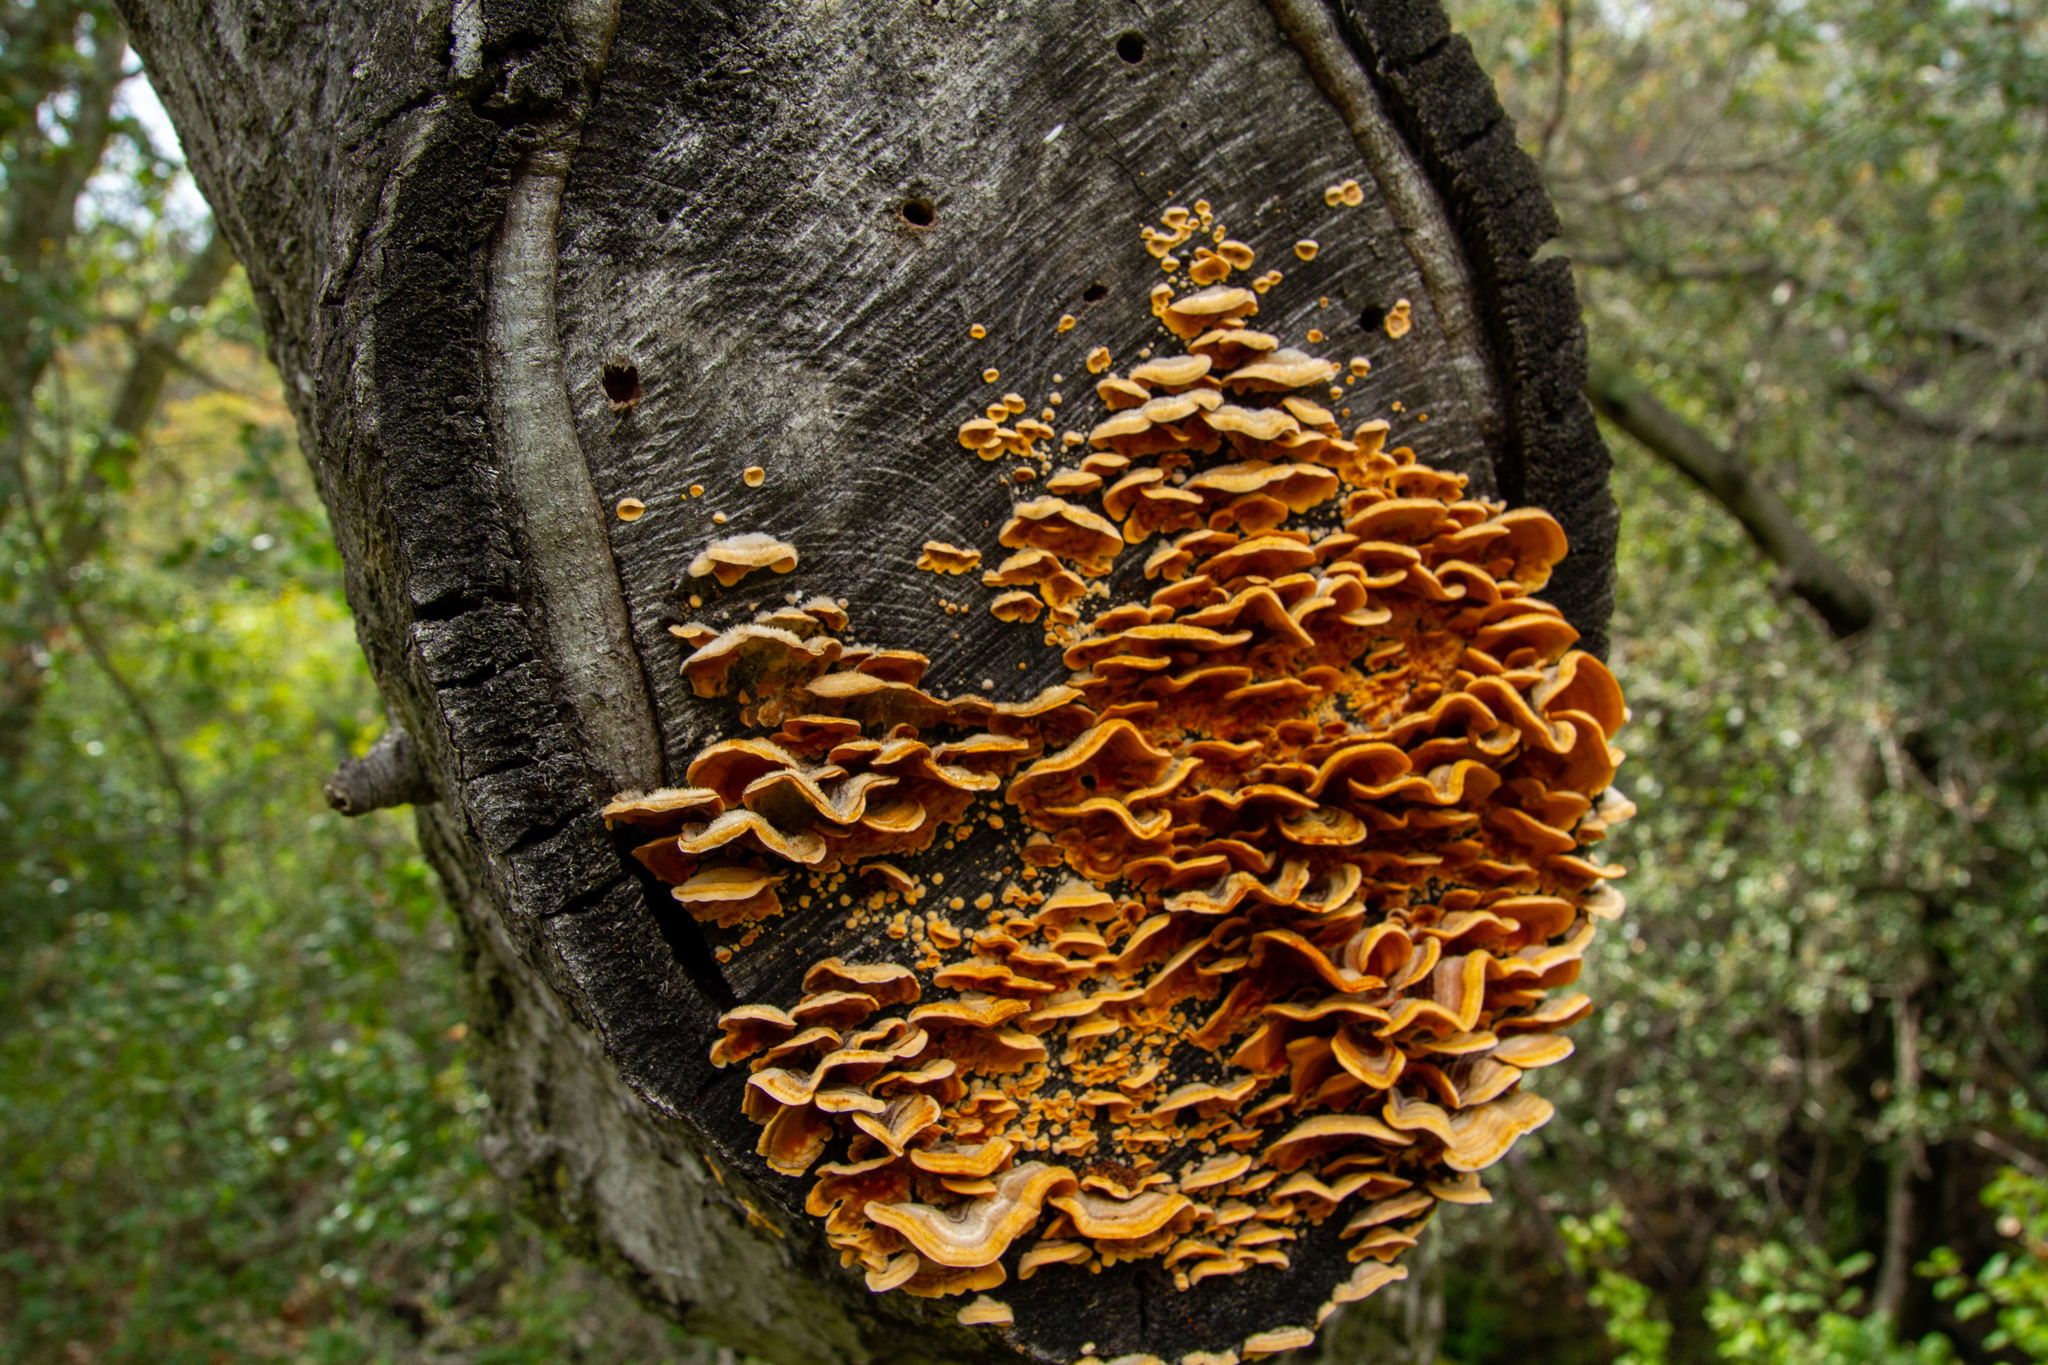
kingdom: Fungi
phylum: Basidiomycota
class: Agaricomycetes
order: Russulales
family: Stereaceae
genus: Stereum
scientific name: Stereum hirsutum
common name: Hairy curtain crust
